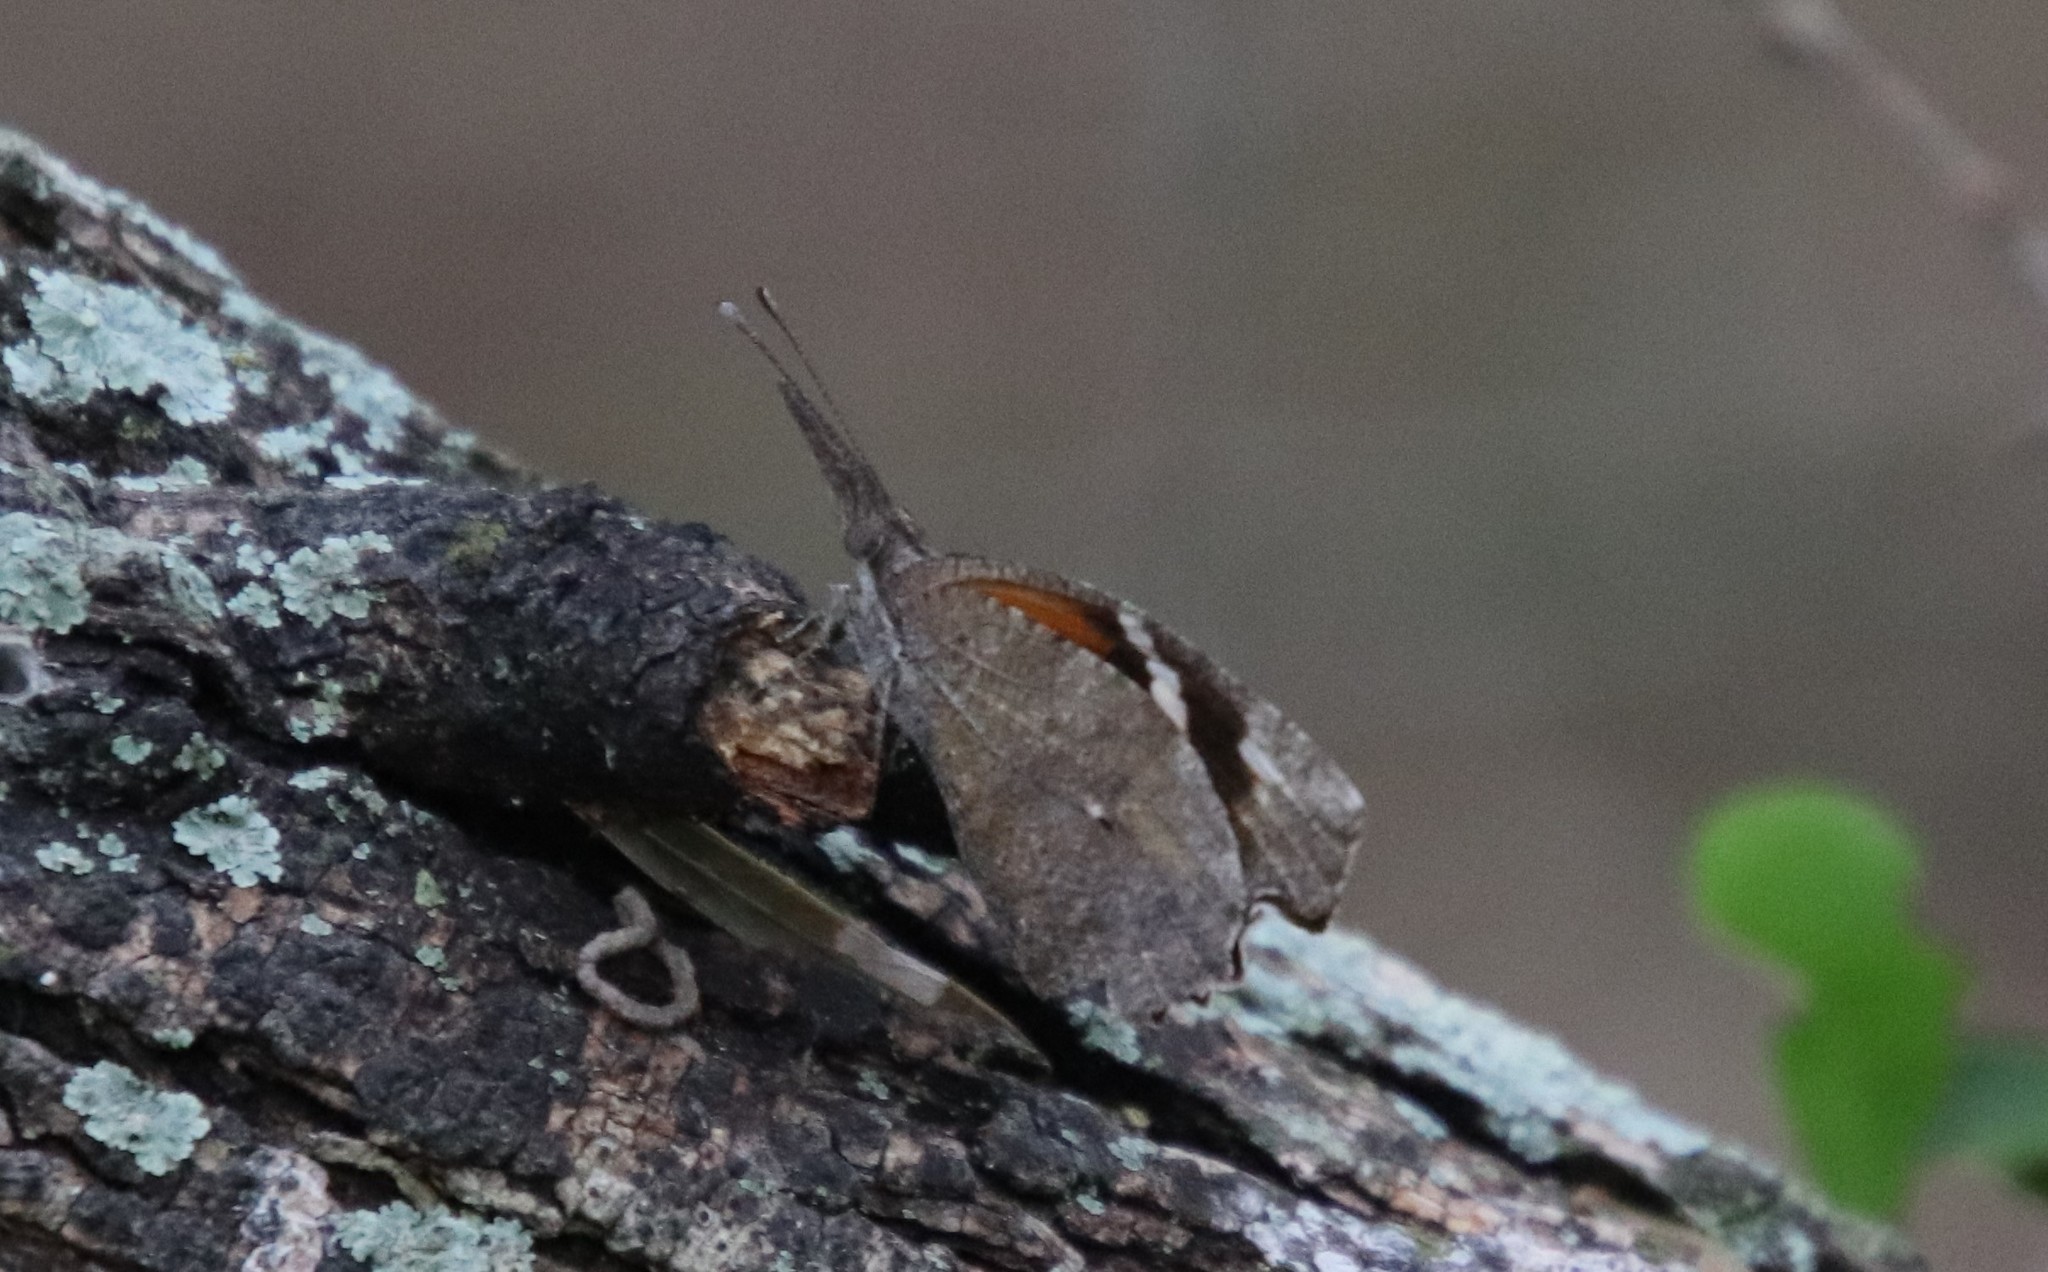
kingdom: Animalia
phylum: Arthropoda
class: Insecta
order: Lepidoptera
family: Nymphalidae
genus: Libytheana
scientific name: Libytheana carinenta
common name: American snout
